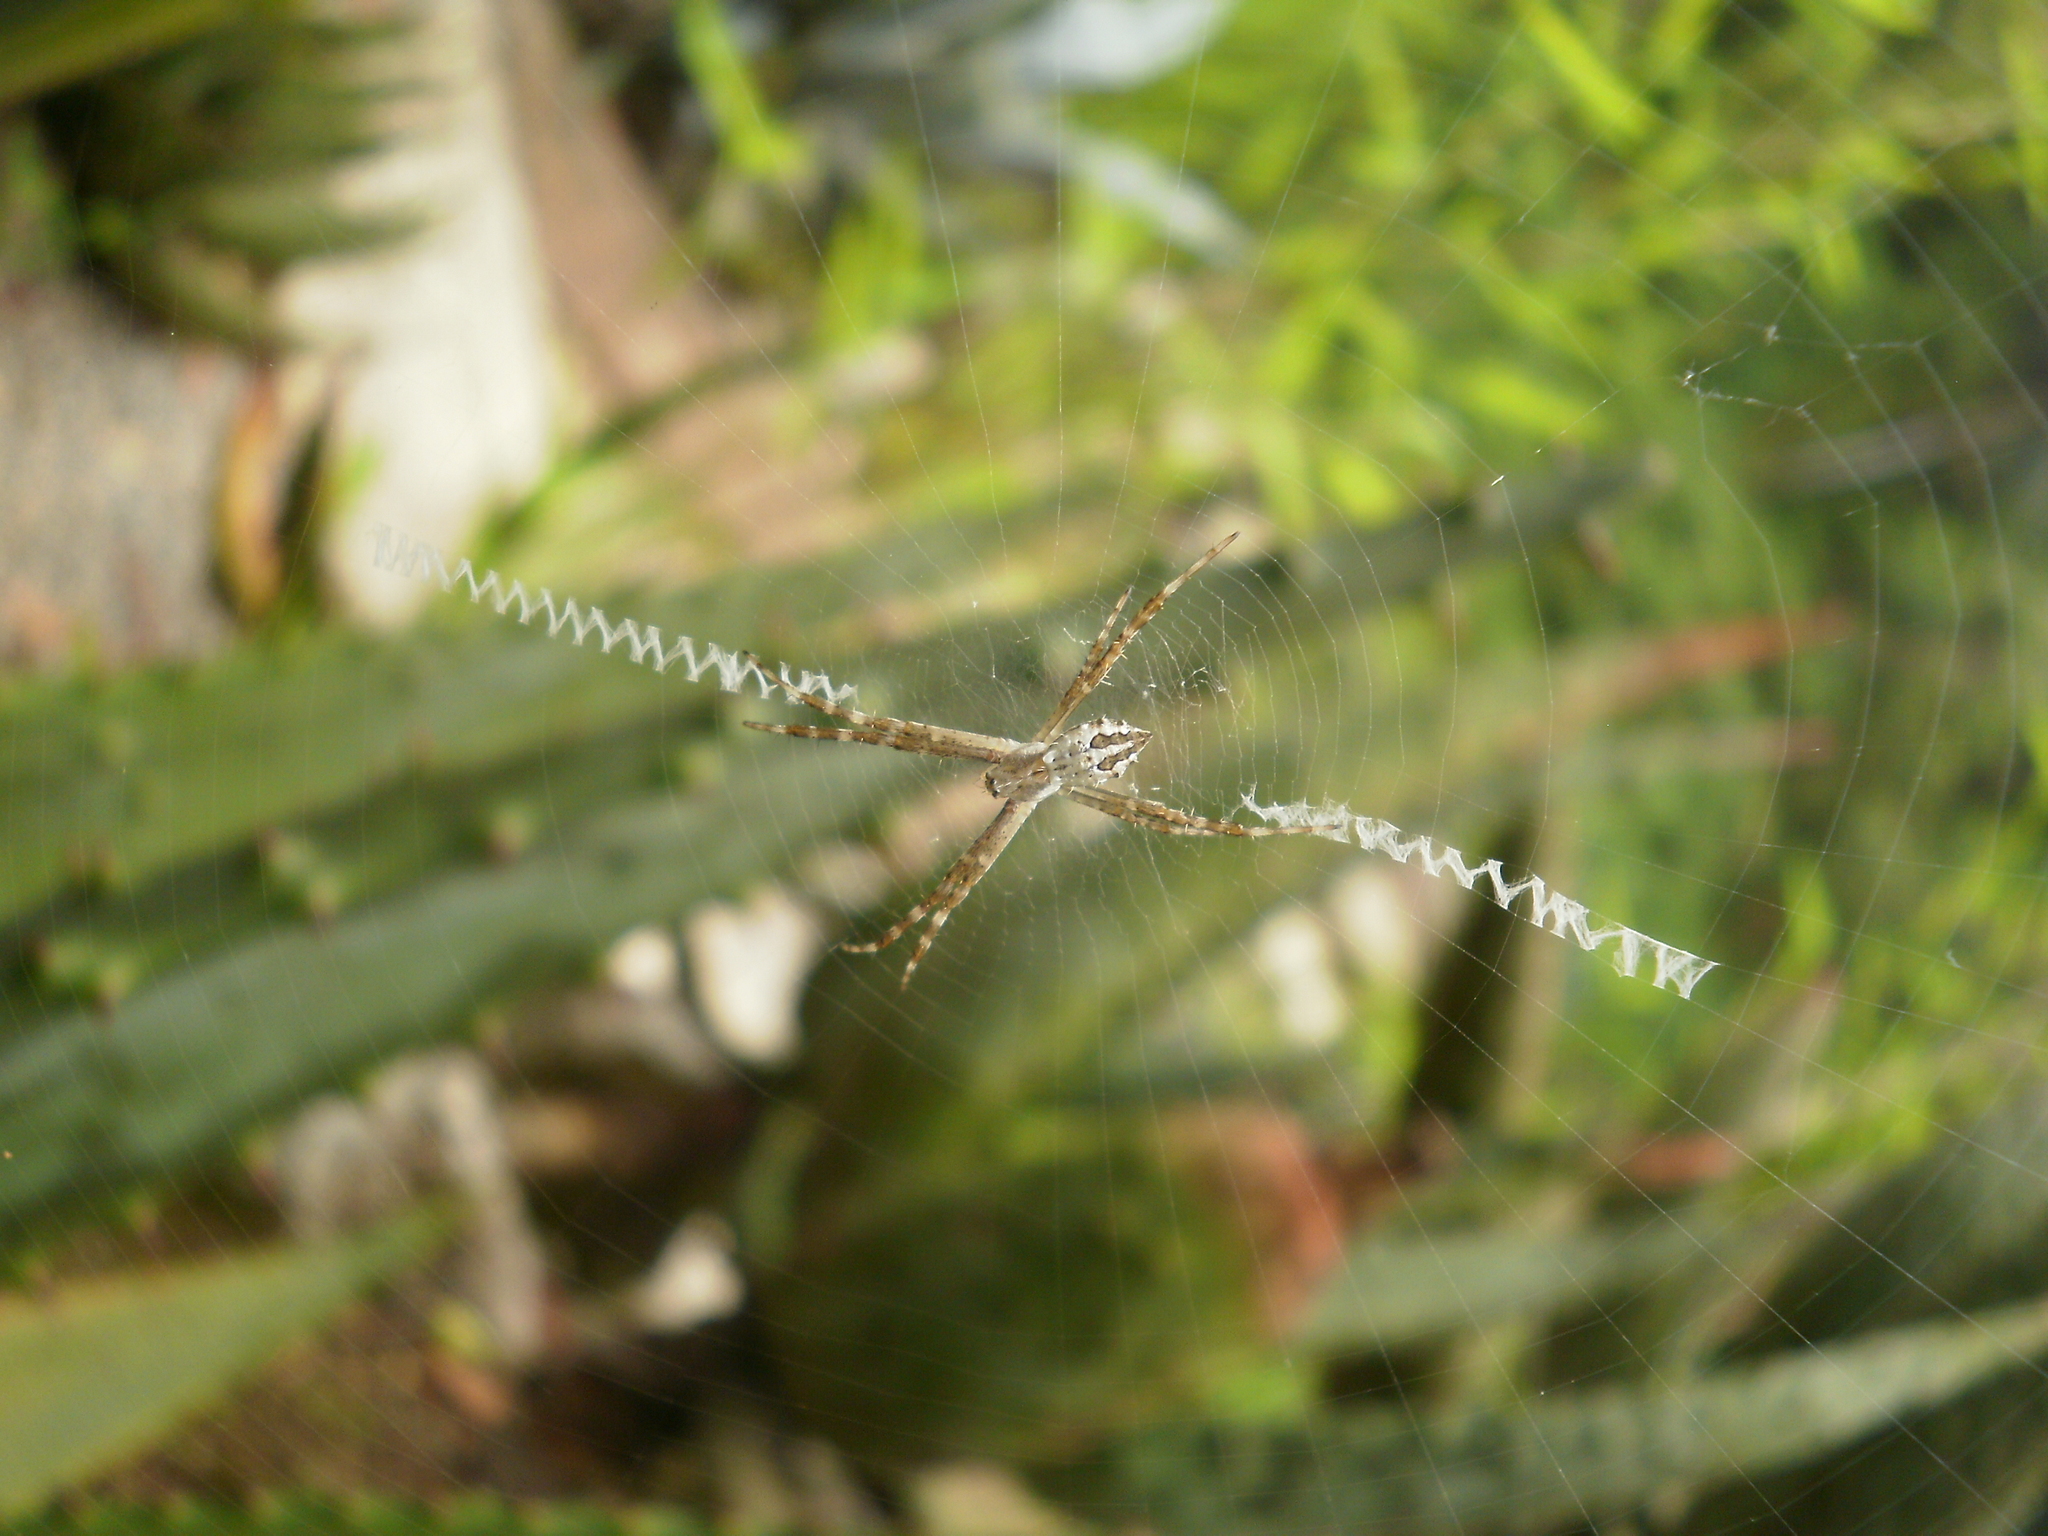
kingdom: Animalia
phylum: Arthropoda
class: Arachnida
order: Araneae
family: Araneidae
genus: Argiope
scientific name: Argiope argentata
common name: Orb weavers
